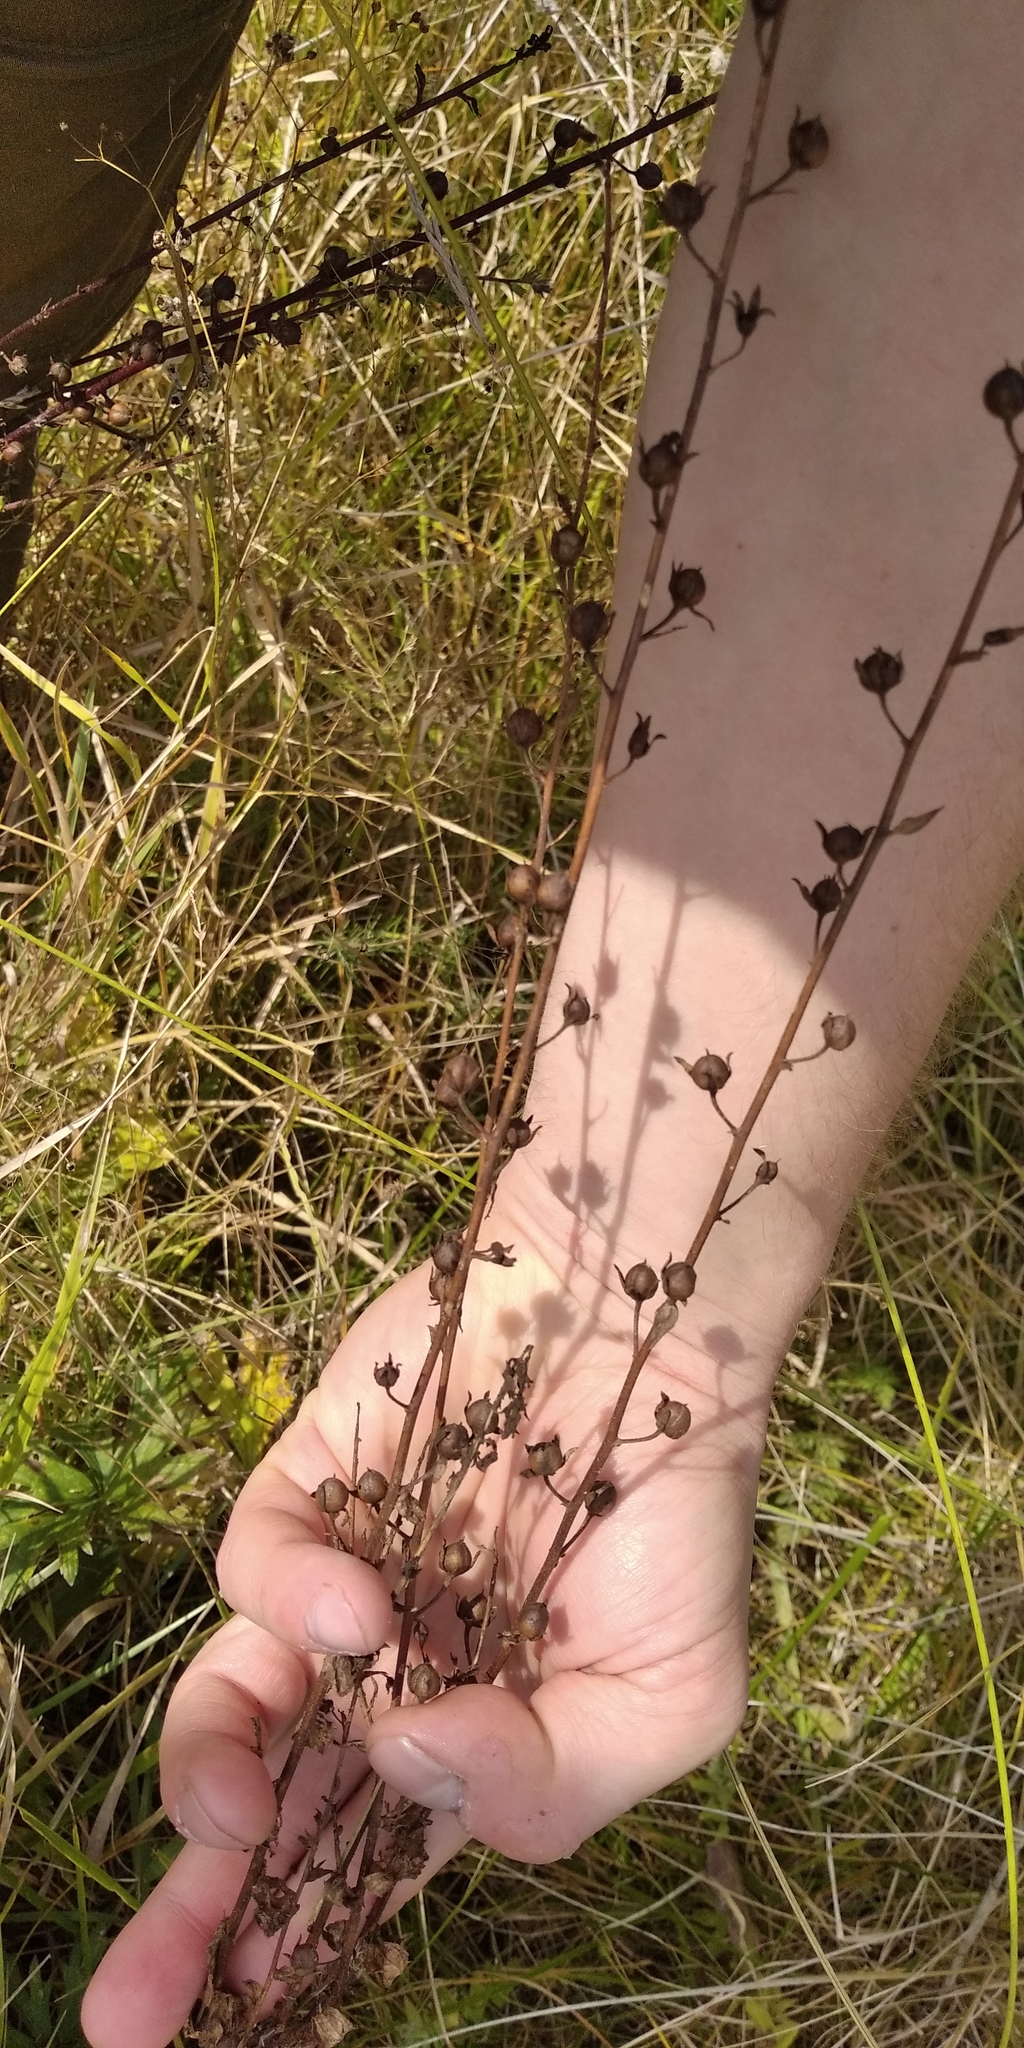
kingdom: Plantae
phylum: Tracheophyta
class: Magnoliopsida
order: Lamiales
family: Scrophulariaceae
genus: Verbascum
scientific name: Verbascum blattaria
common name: Moth mullein
